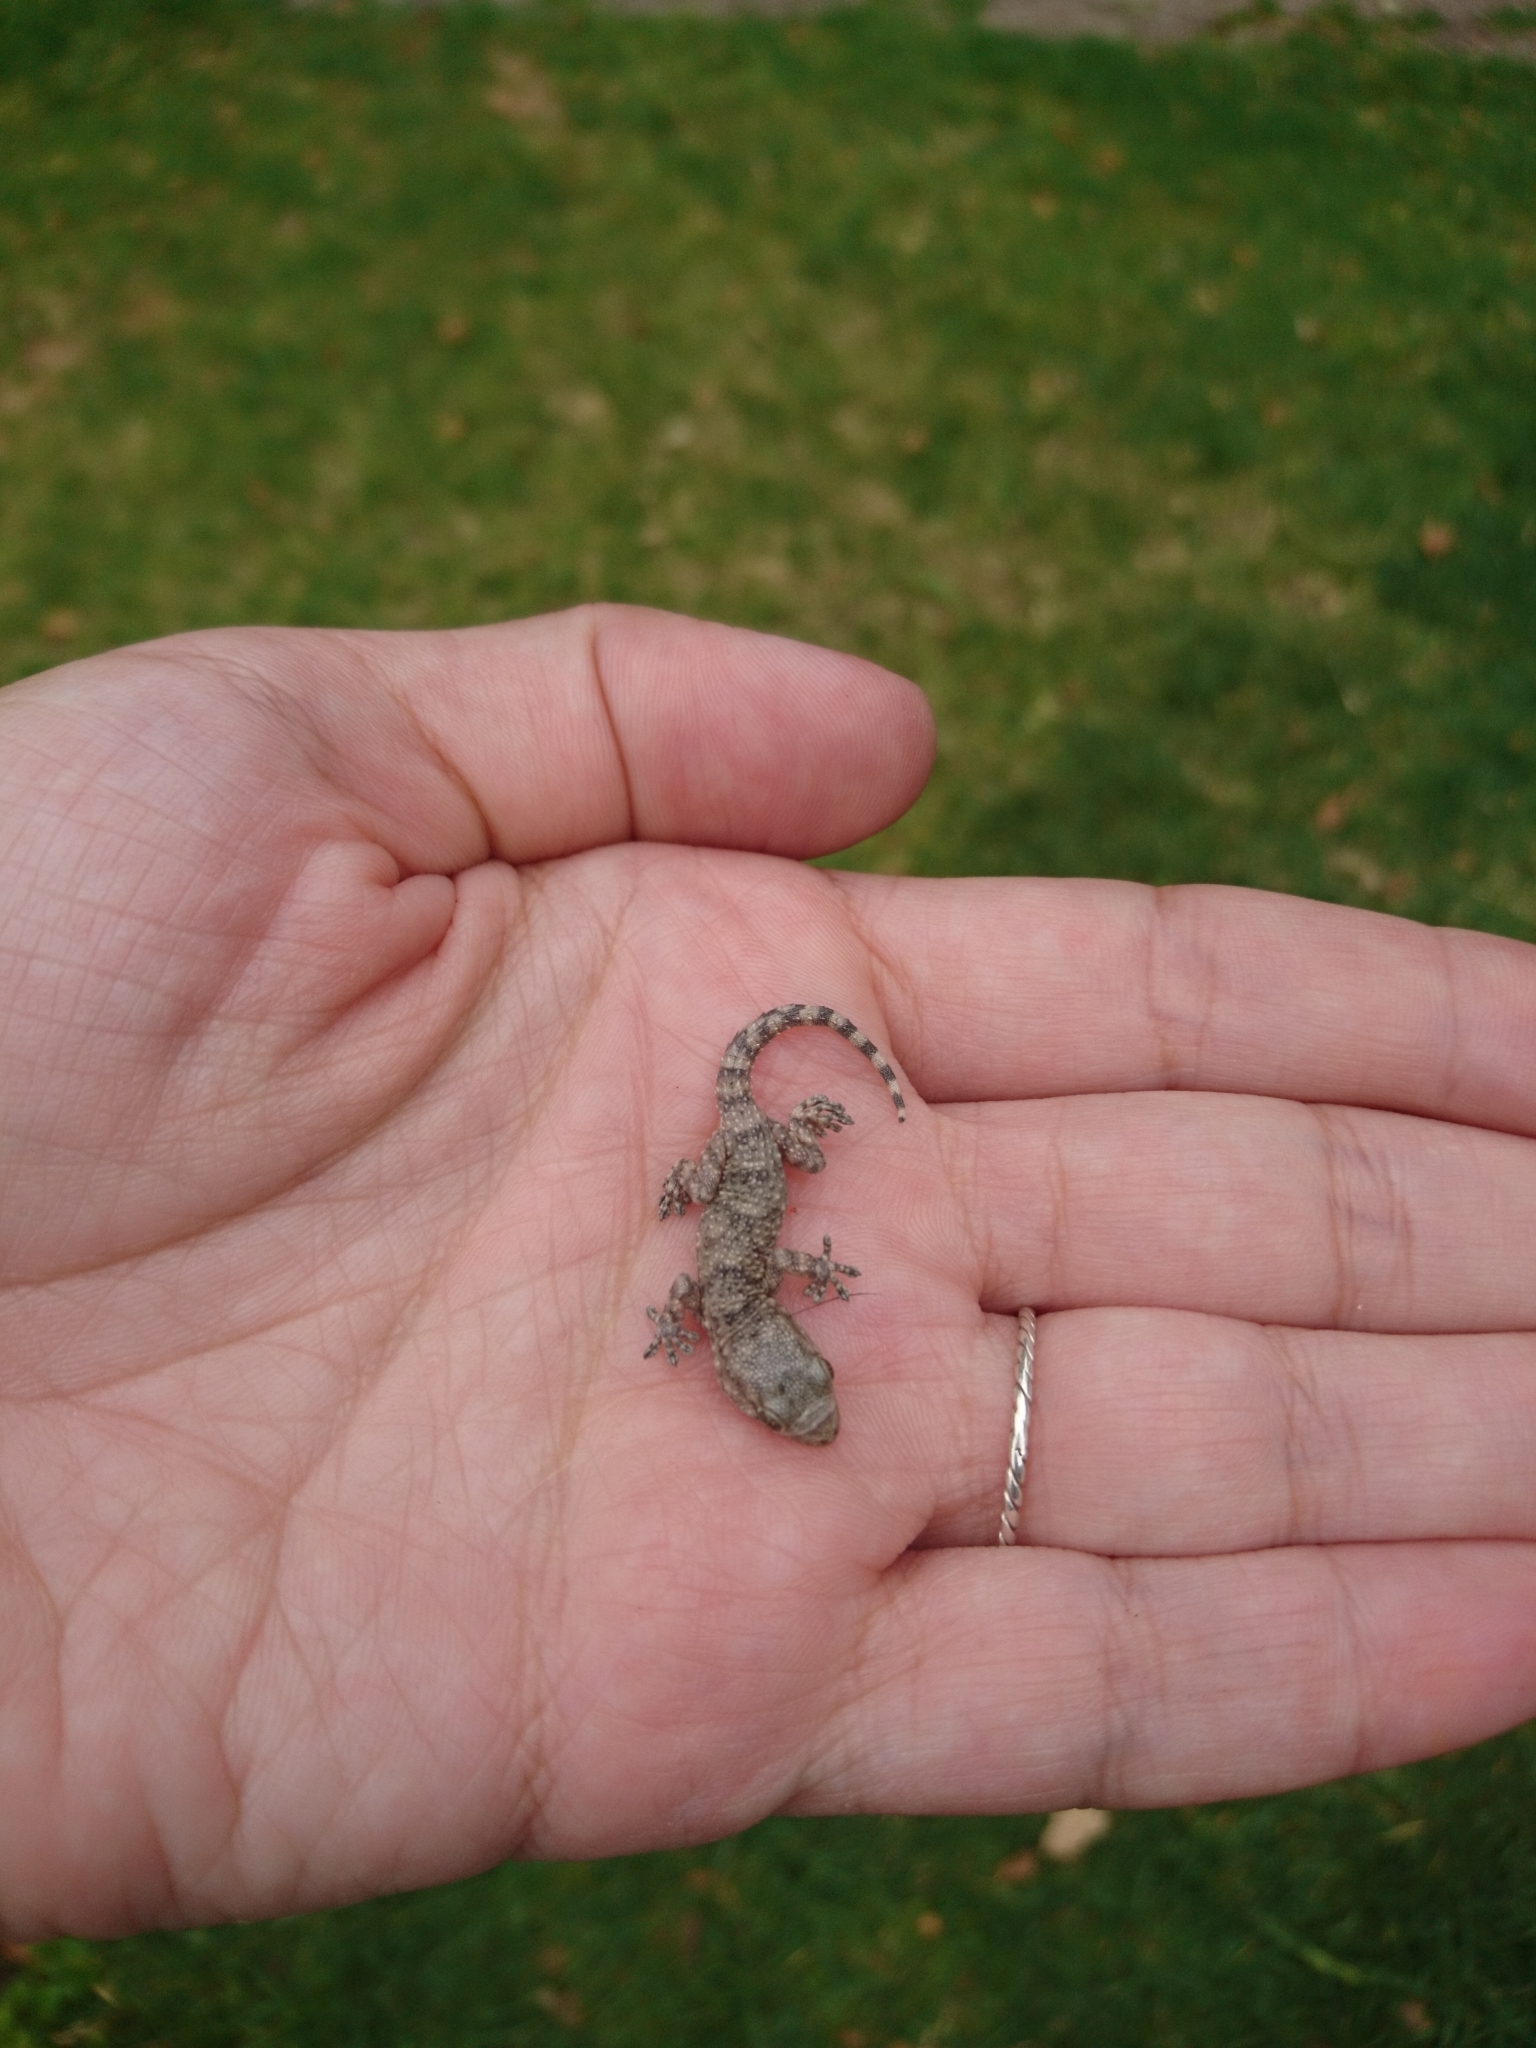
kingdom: Animalia
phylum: Chordata
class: Squamata
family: Phyllodactylidae
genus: Tarentola
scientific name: Tarentola mauritanica
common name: Moorish gecko
